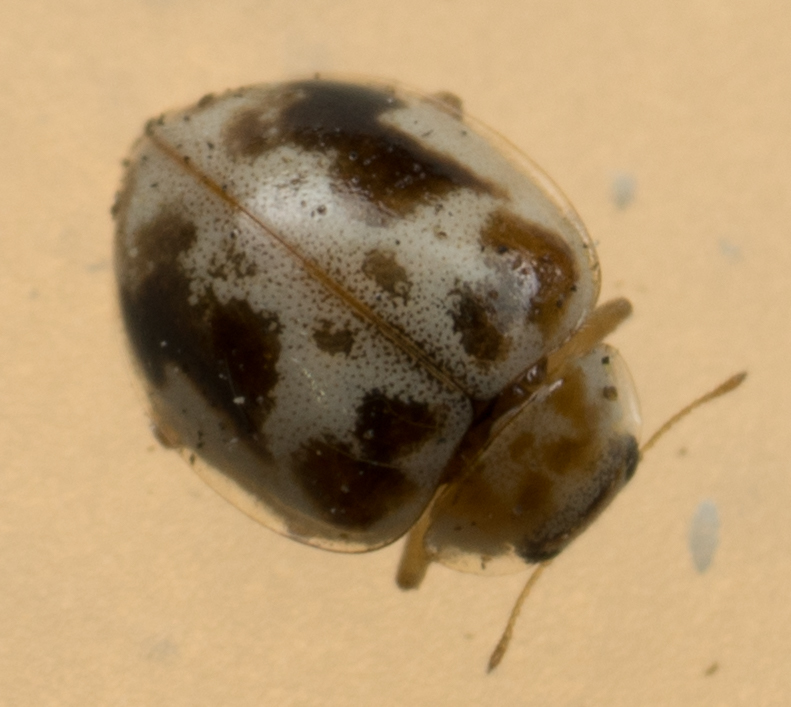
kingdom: Animalia
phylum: Arthropoda
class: Insecta
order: Coleoptera
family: Coccinellidae
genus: Psyllobora
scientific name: Psyllobora renifer
